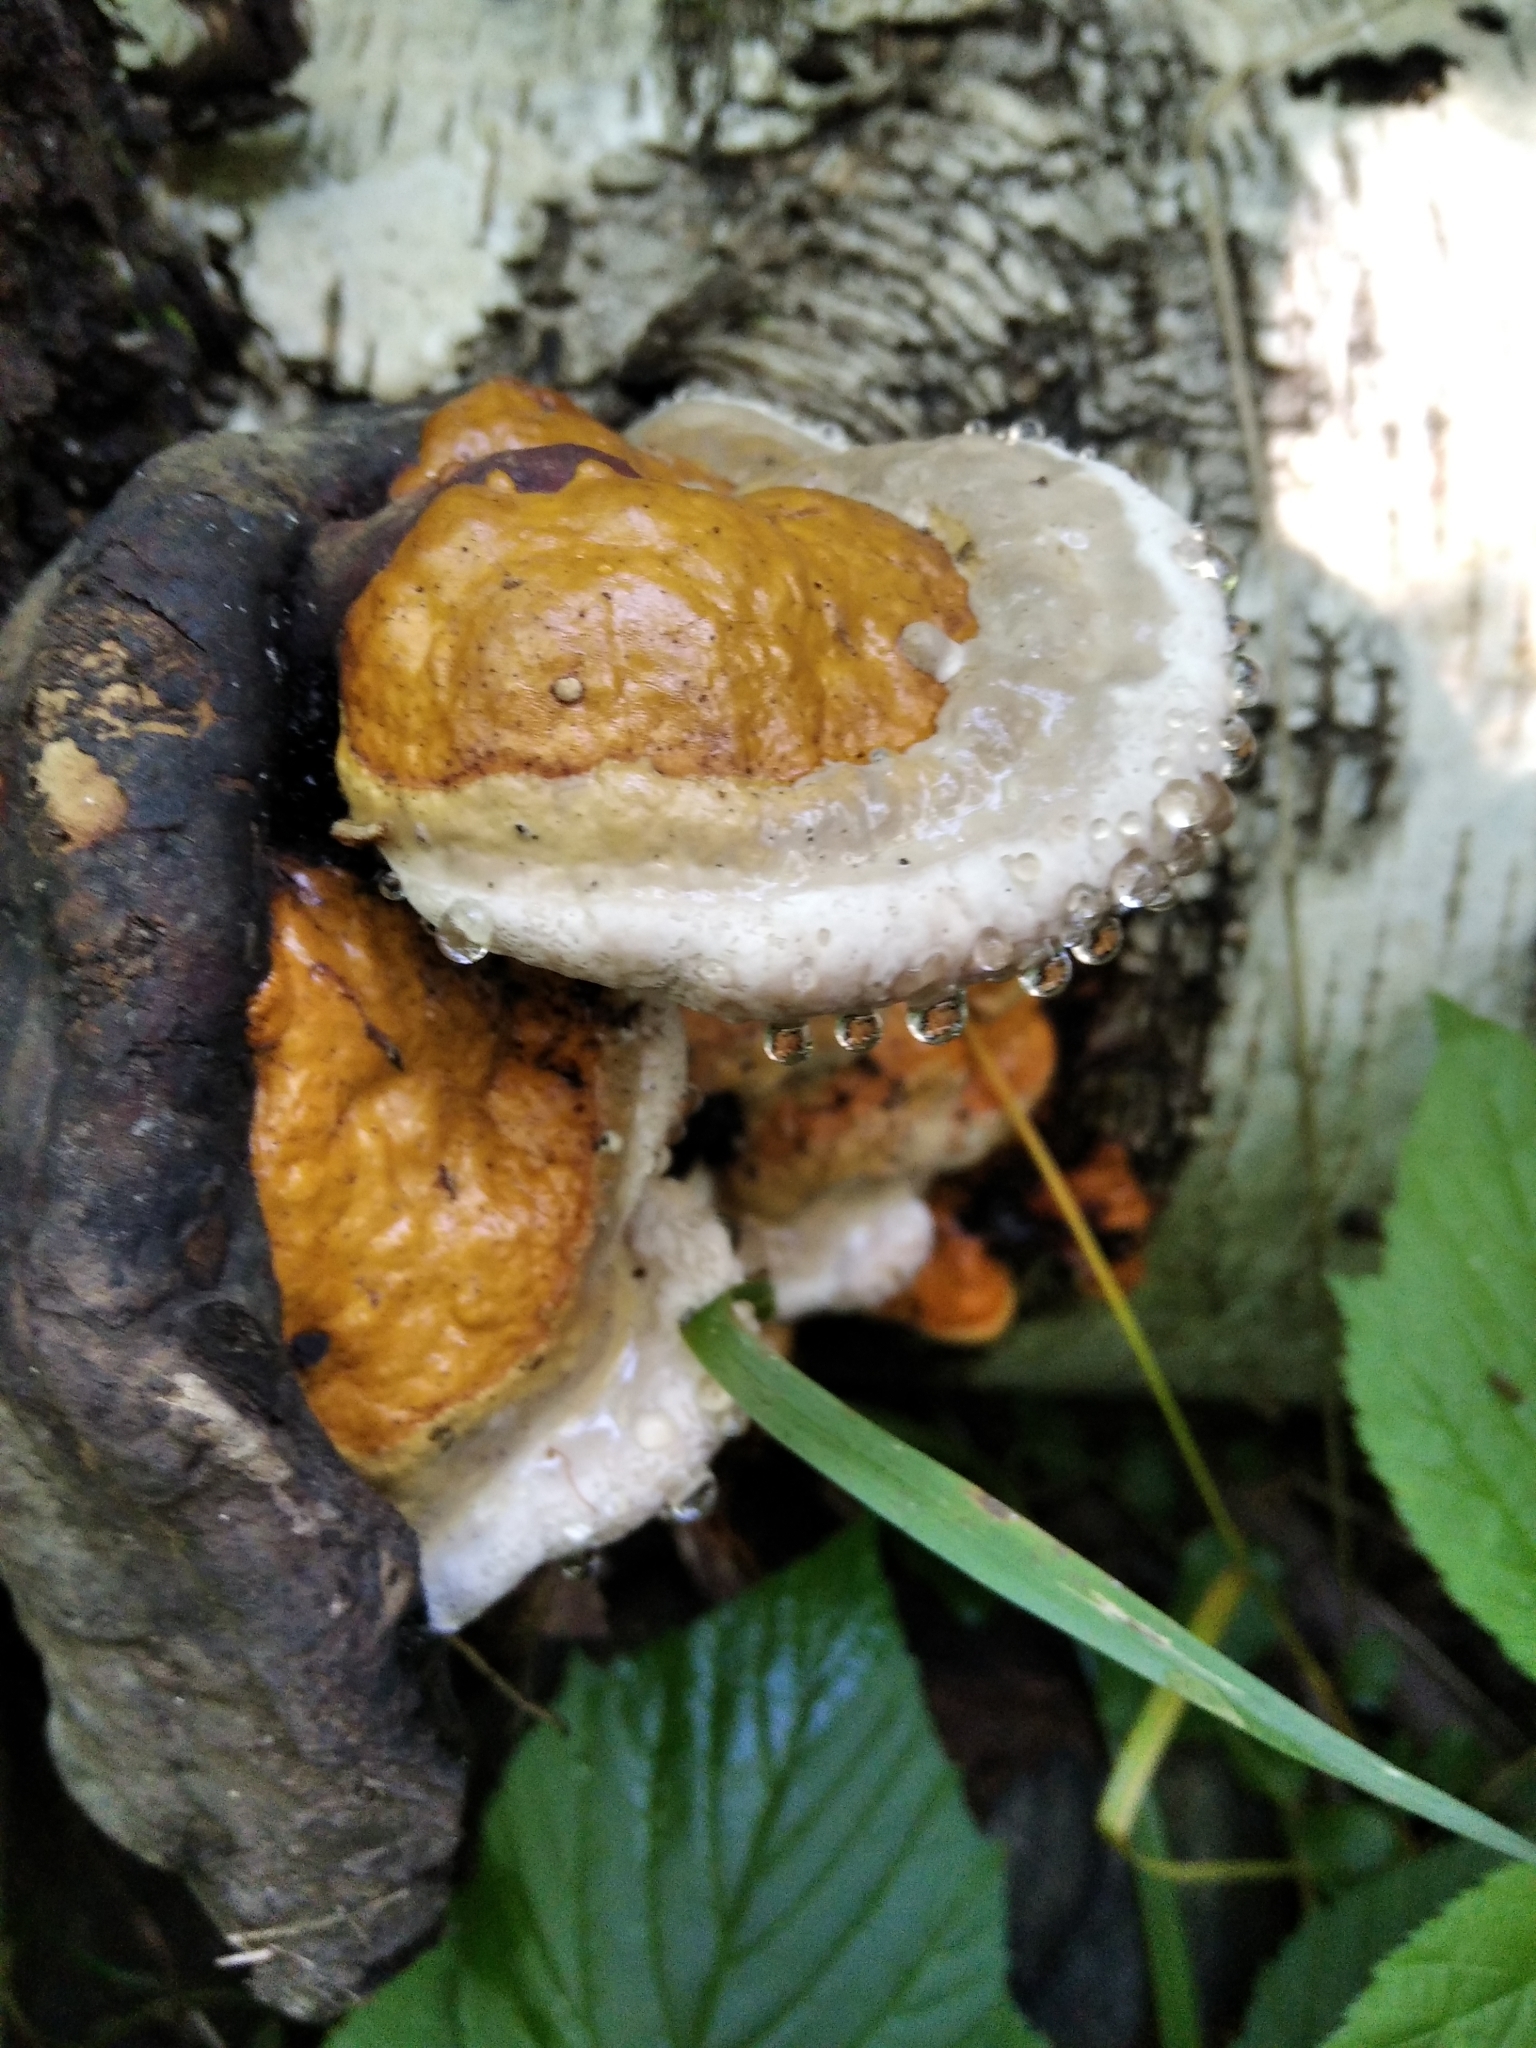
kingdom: Fungi
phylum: Basidiomycota
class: Agaricomycetes
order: Polyporales
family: Fomitopsidaceae
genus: Fomitopsis
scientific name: Fomitopsis pinicola
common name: Red-belted bracket
